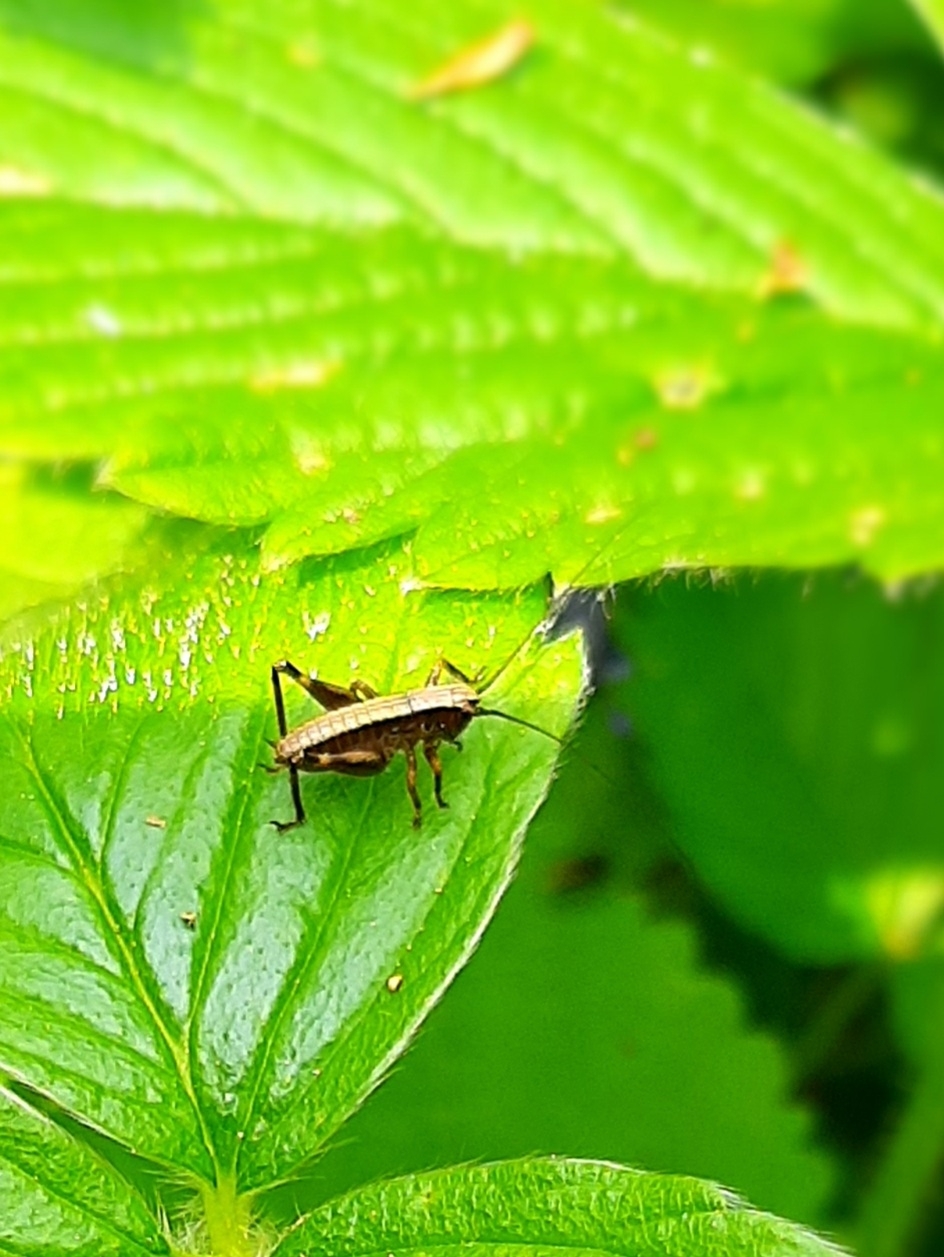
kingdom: Animalia
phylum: Arthropoda
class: Insecta
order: Orthoptera
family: Tettigoniidae
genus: Pholidoptera
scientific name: Pholidoptera griseoaptera
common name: Dark bush-cricket
